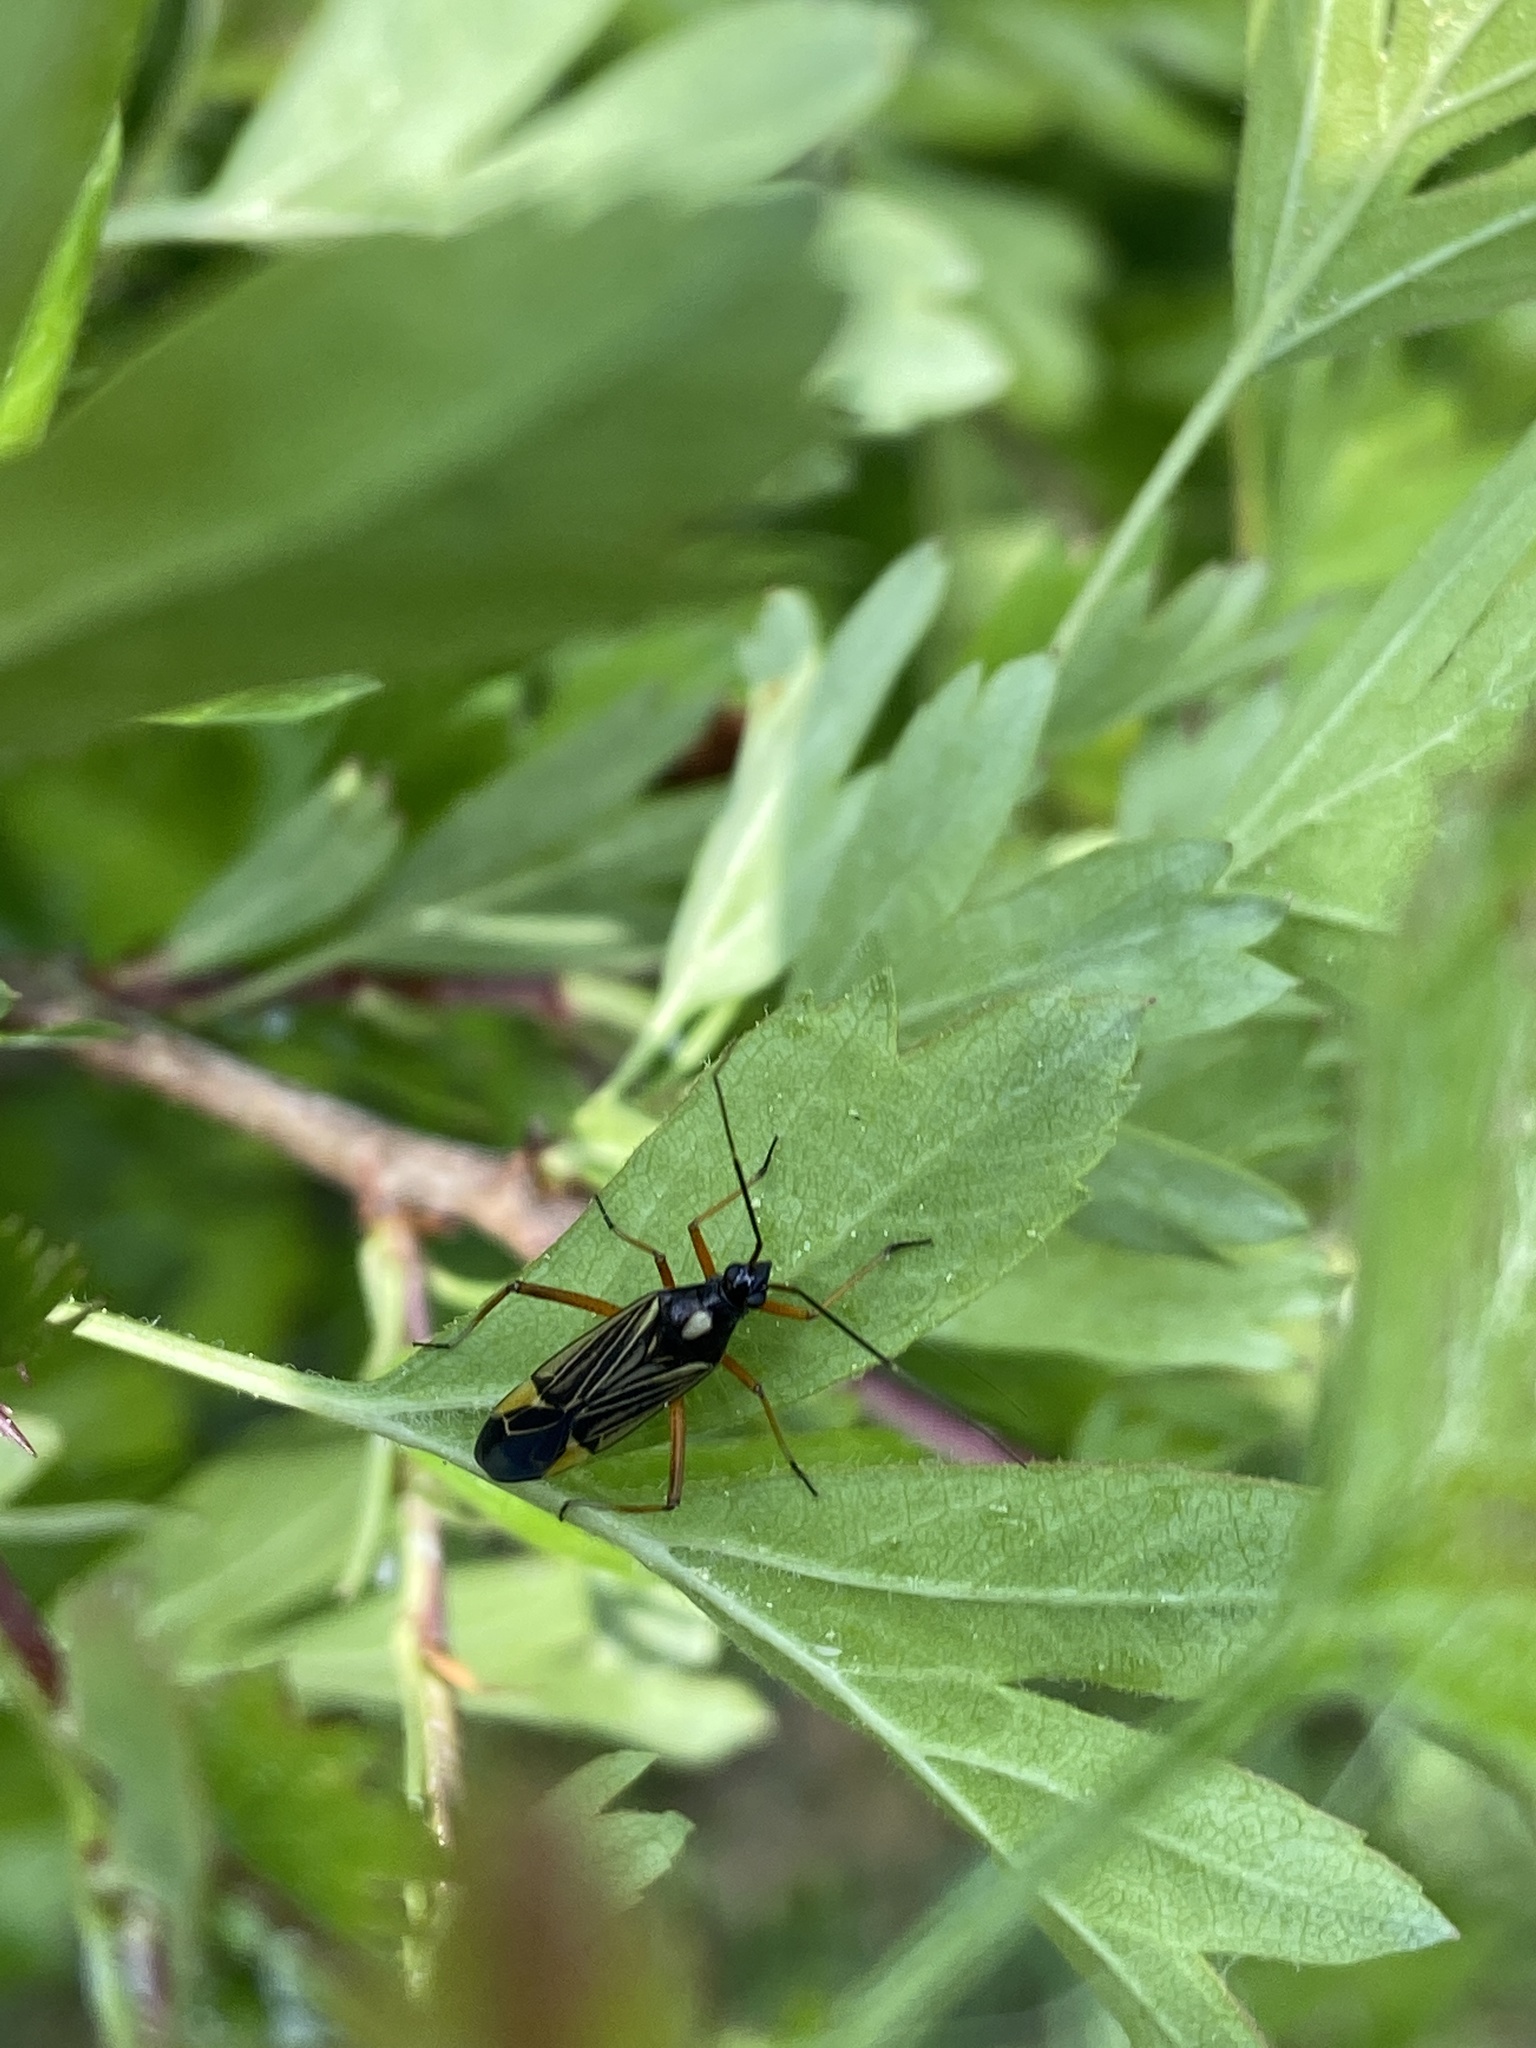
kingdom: Animalia
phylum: Arthropoda
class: Insecta
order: Hemiptera
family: Miridae
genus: Miris
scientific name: Miris striatus
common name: Fine streaked bugkin
